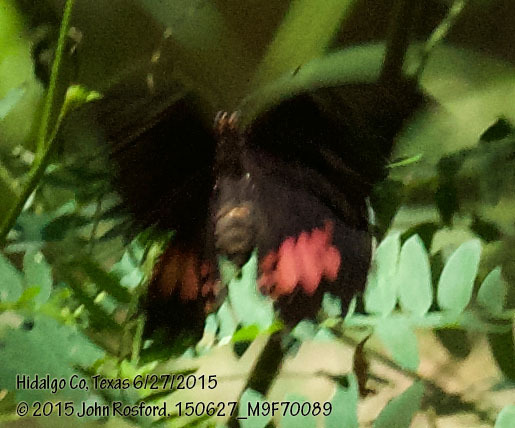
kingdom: Animalia
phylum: Arthropoda
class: Insecta
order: Lepidoptera
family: Papilionidae
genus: Papilio
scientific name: Papilio anchisiades
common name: Idaes swallowtail
